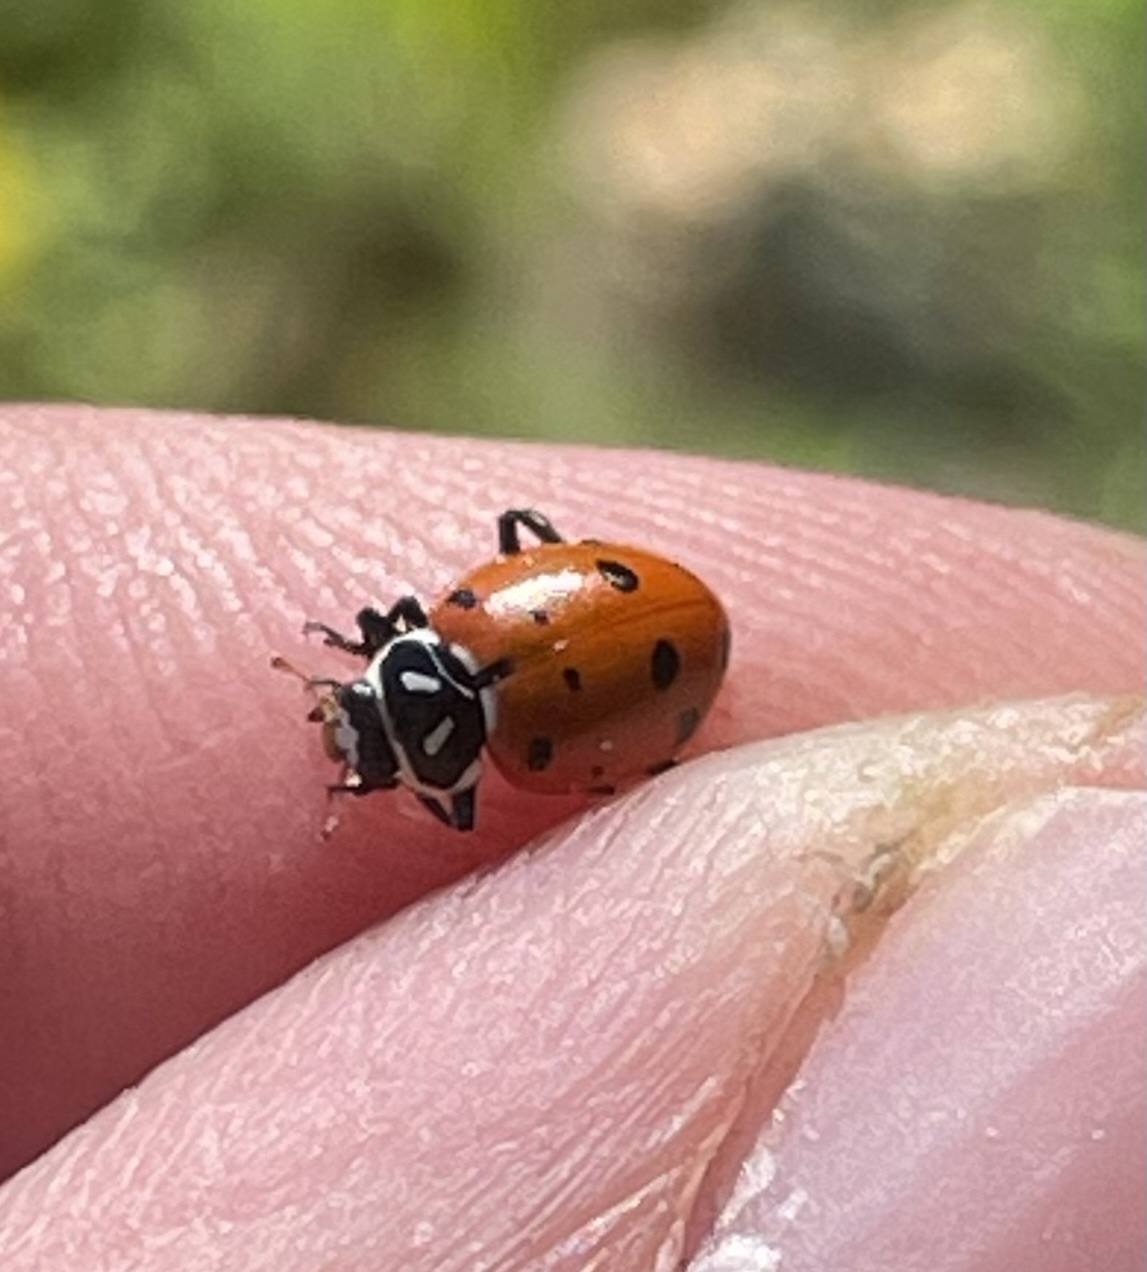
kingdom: Animalia
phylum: Arthropoda
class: Insecta
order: Coleoptera
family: Coccinellidae
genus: Hippodamia
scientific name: Hippodamia convergens
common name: Convergent lady beetle
